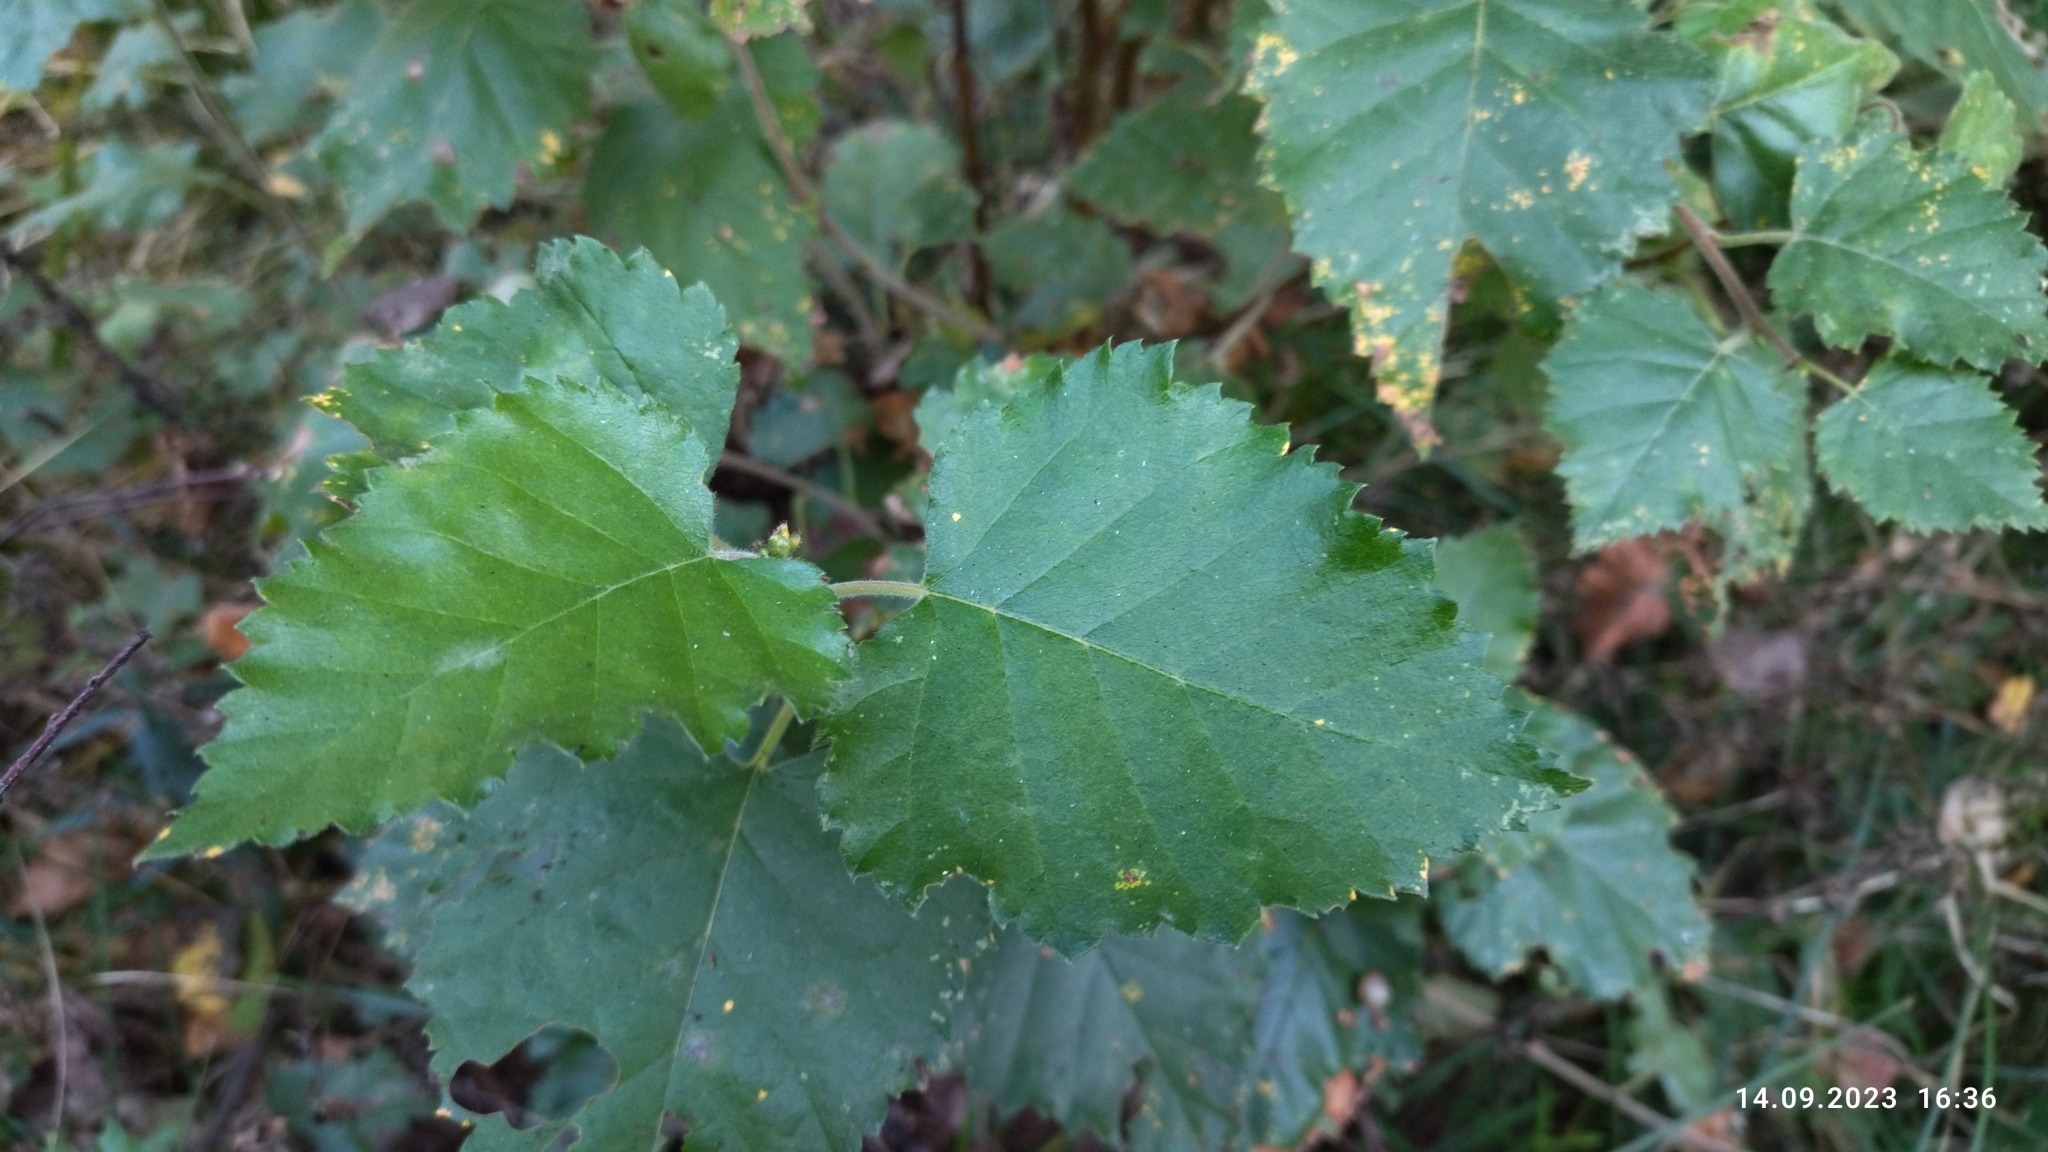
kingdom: Plantae
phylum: Tracheophyta
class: Magnoliopsida
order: Fagales
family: Betulaceae
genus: Betula
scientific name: Betula pubescens
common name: Downy birch
